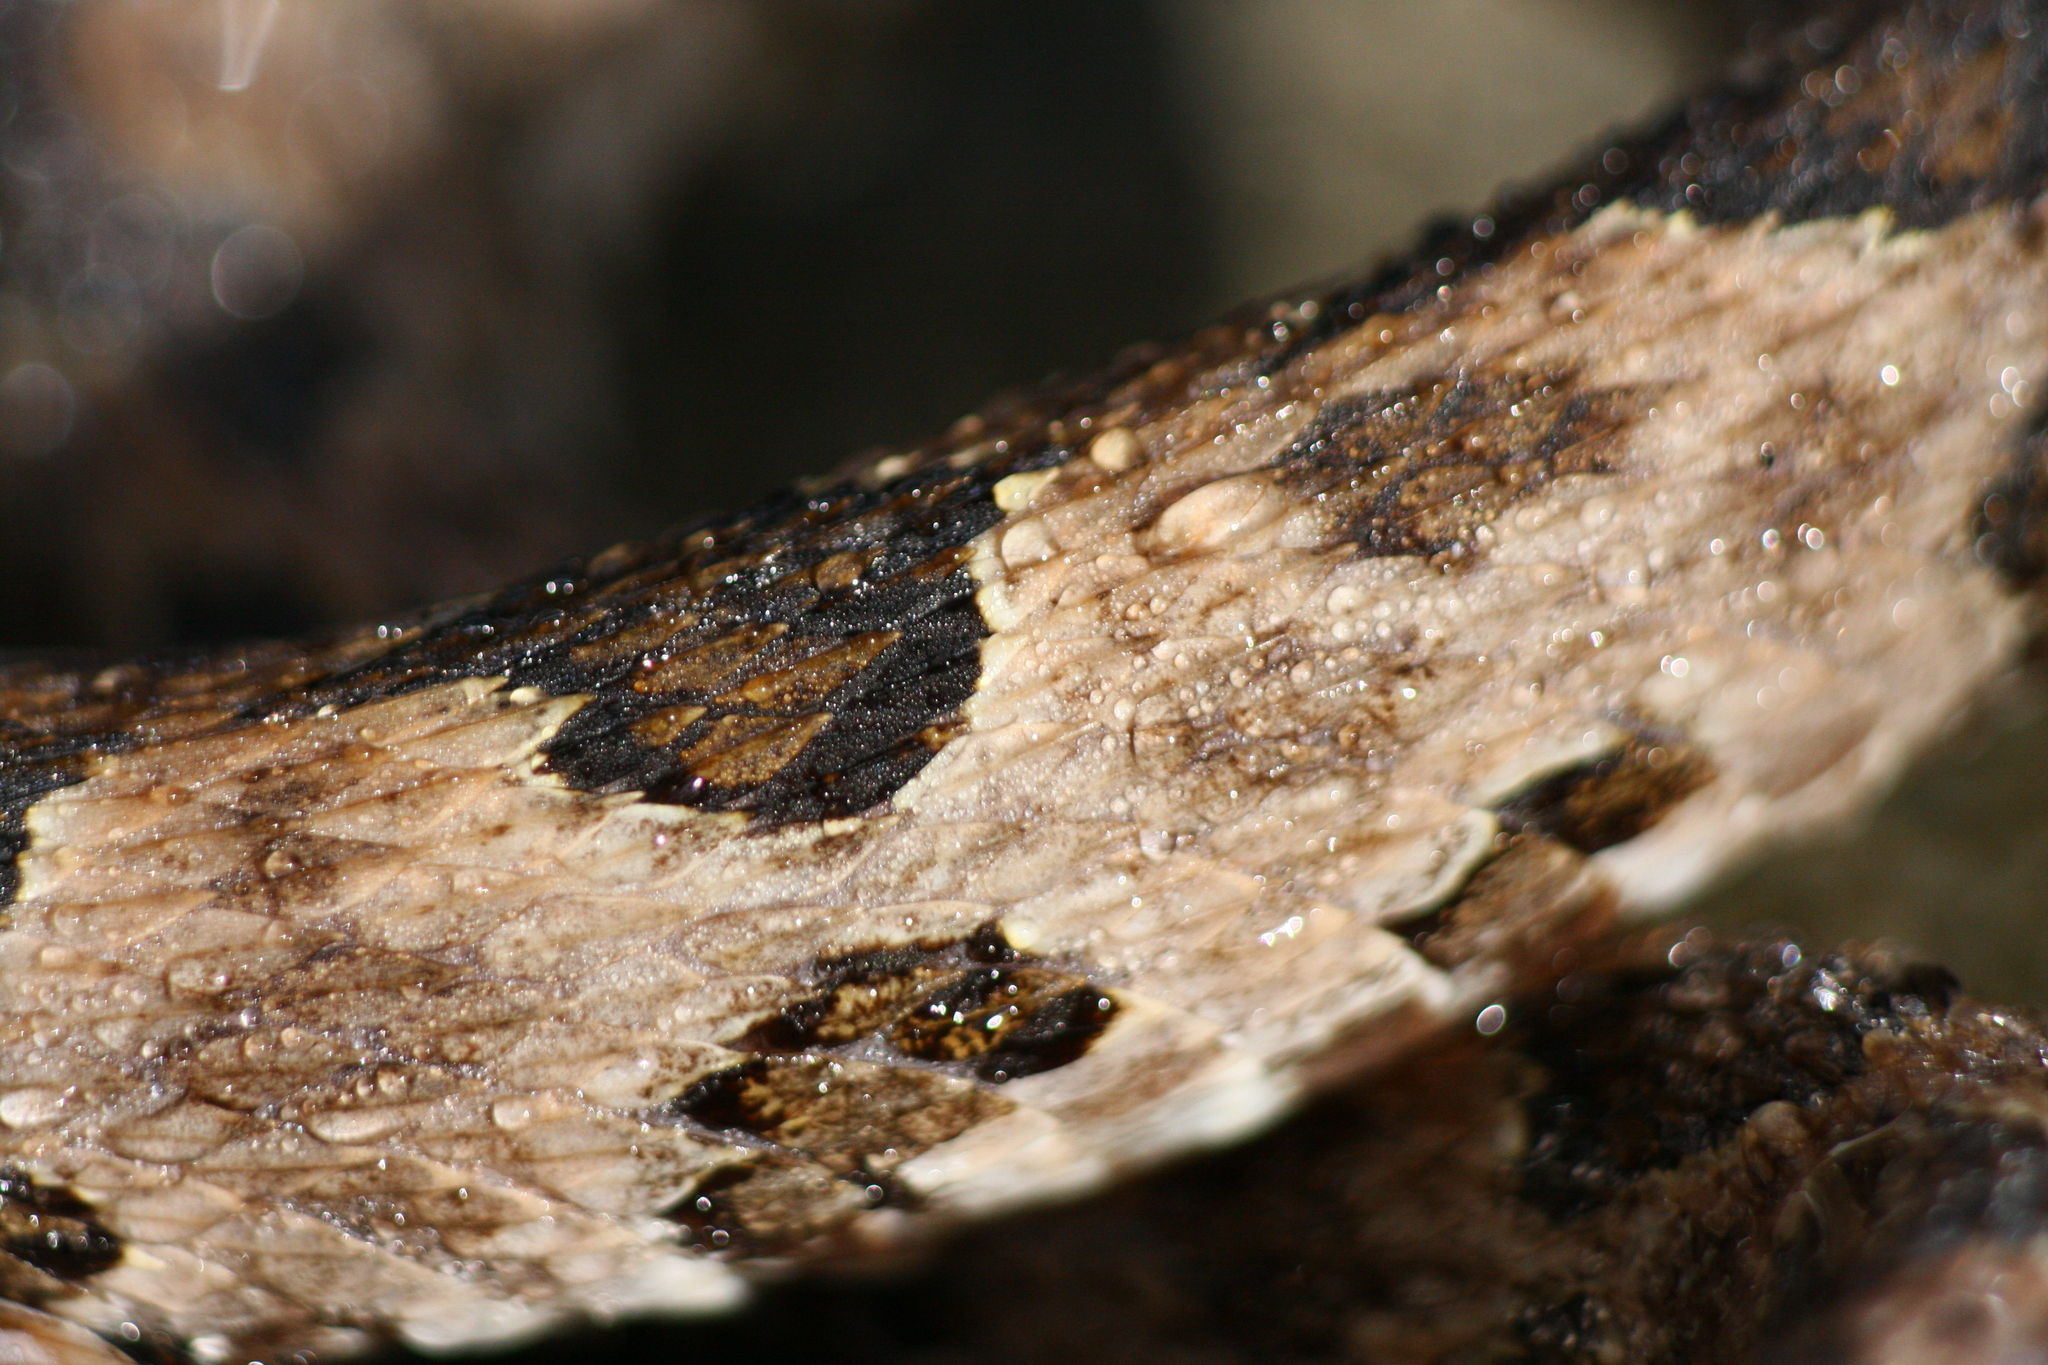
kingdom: Animalia
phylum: Chordata
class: Squamata
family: Viperidae
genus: Protobothrops
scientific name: Protobothrops mucrosquamatus
